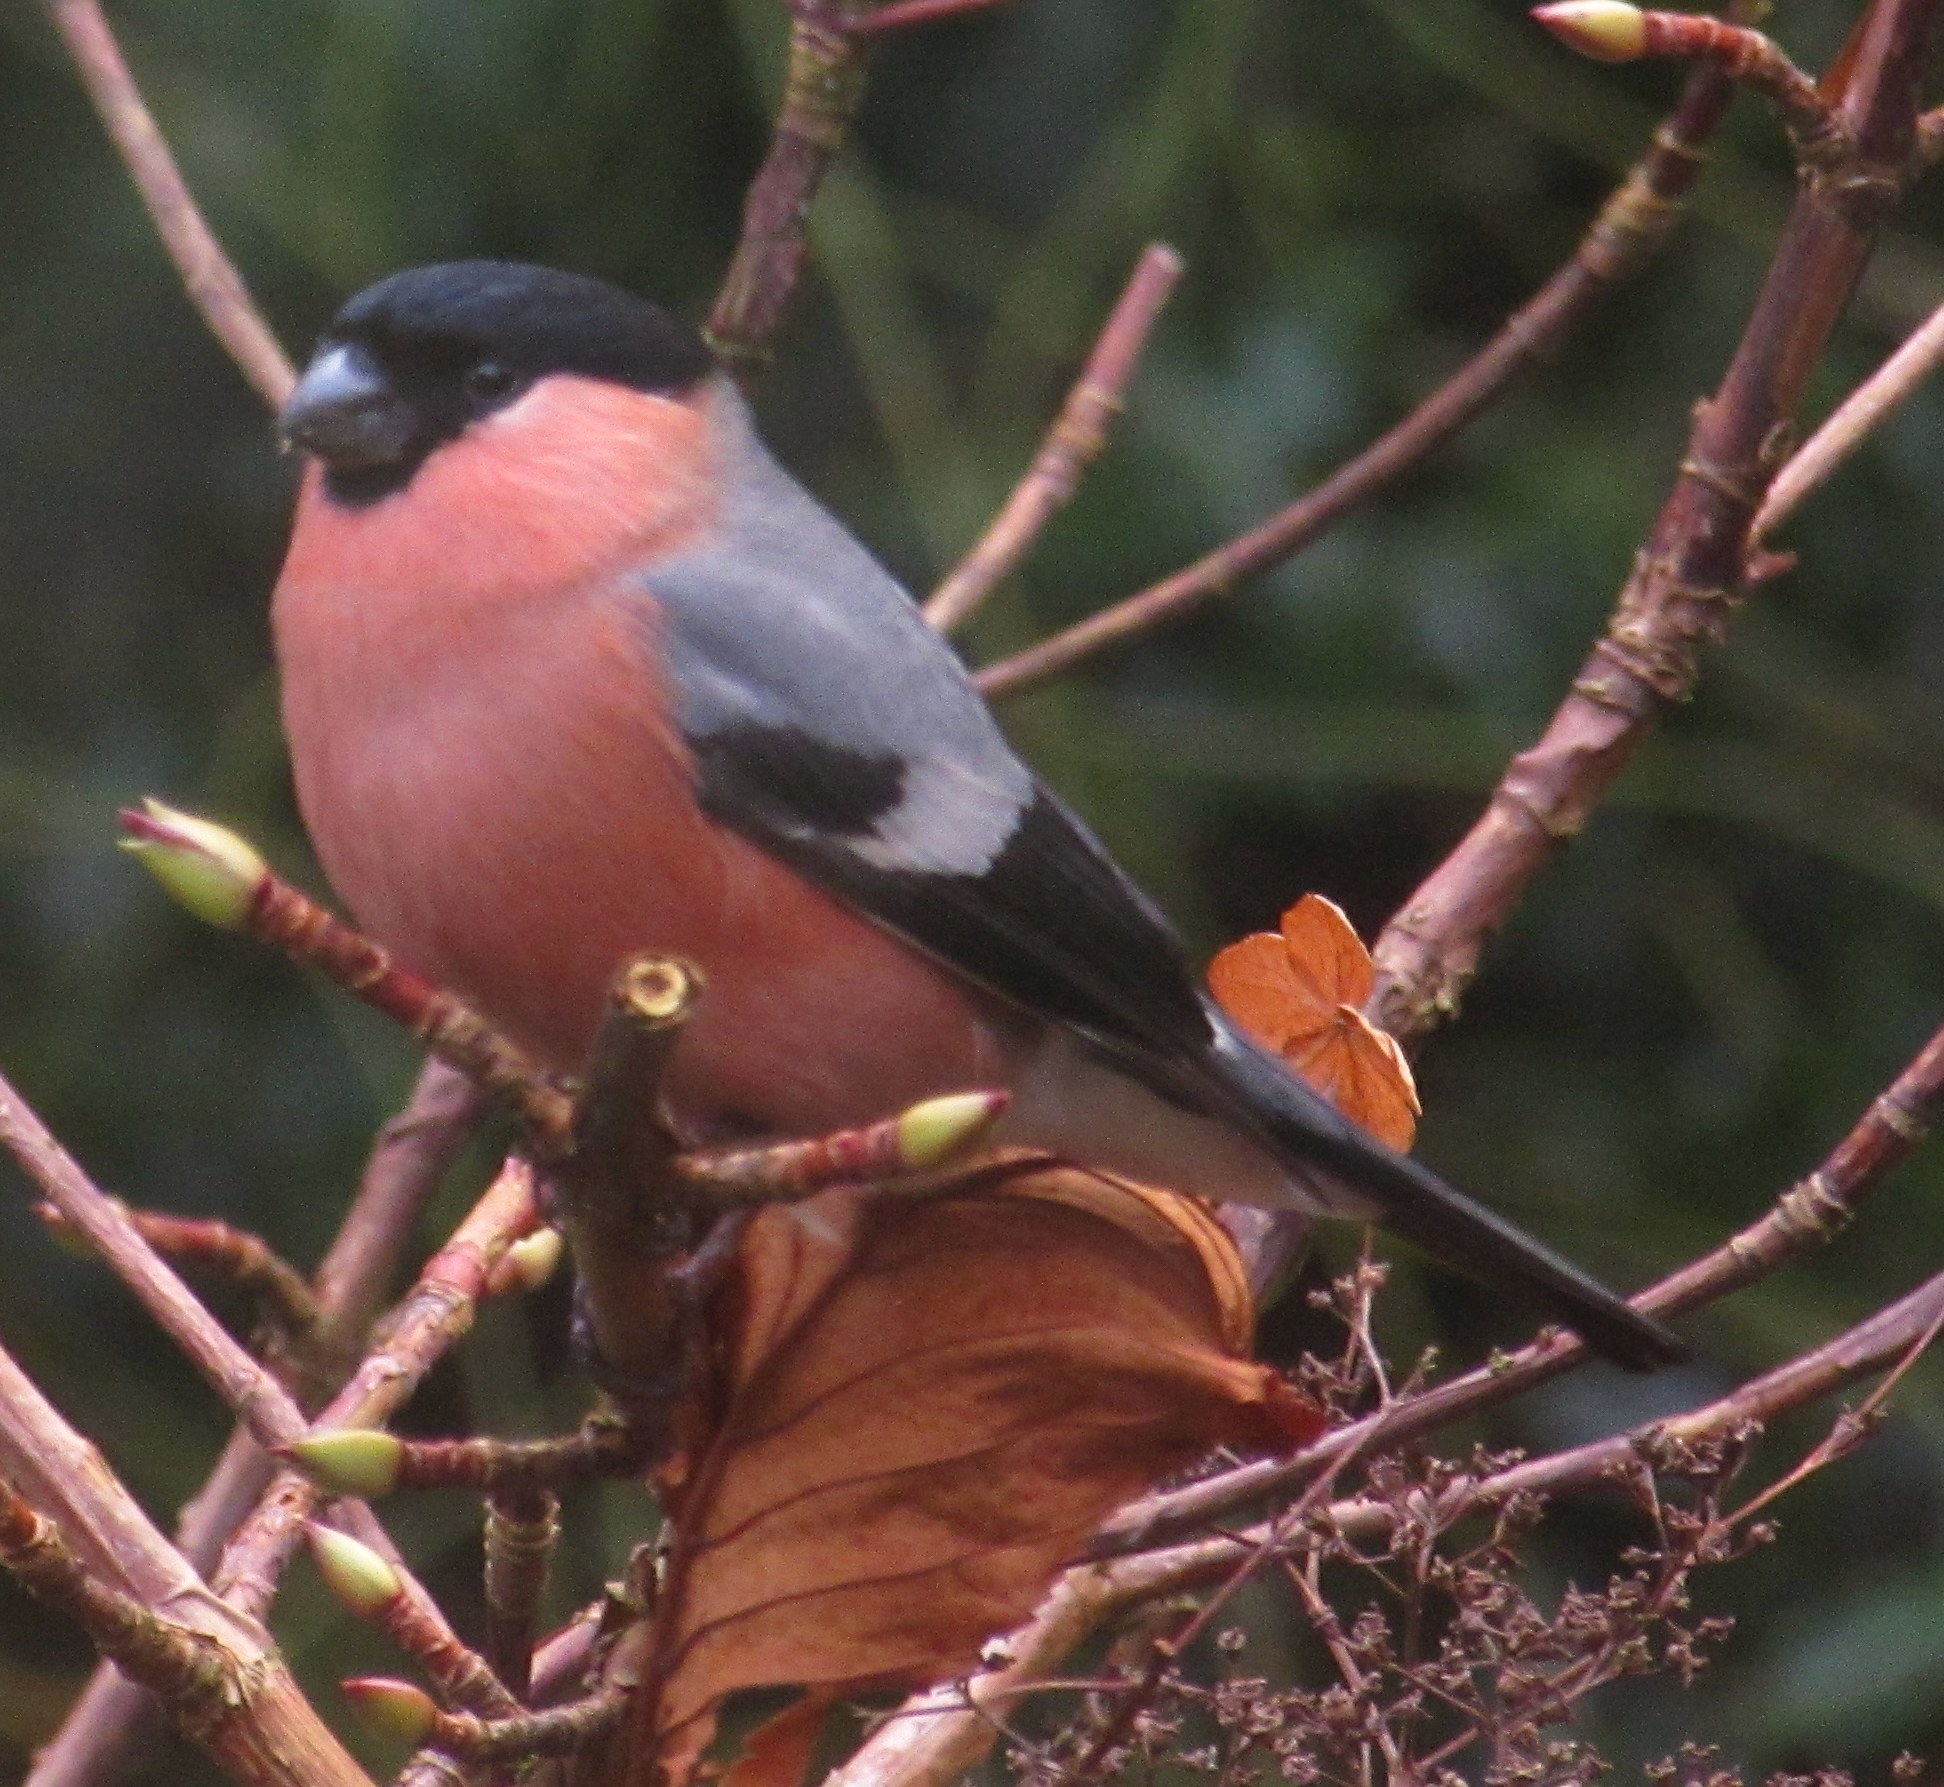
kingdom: Animalia
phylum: Chordata
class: Aves
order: Passeriformes
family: Fringillidae
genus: Pyrrhula
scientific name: Pyrrhula pyrrhula
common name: Eurasian bullfinch
